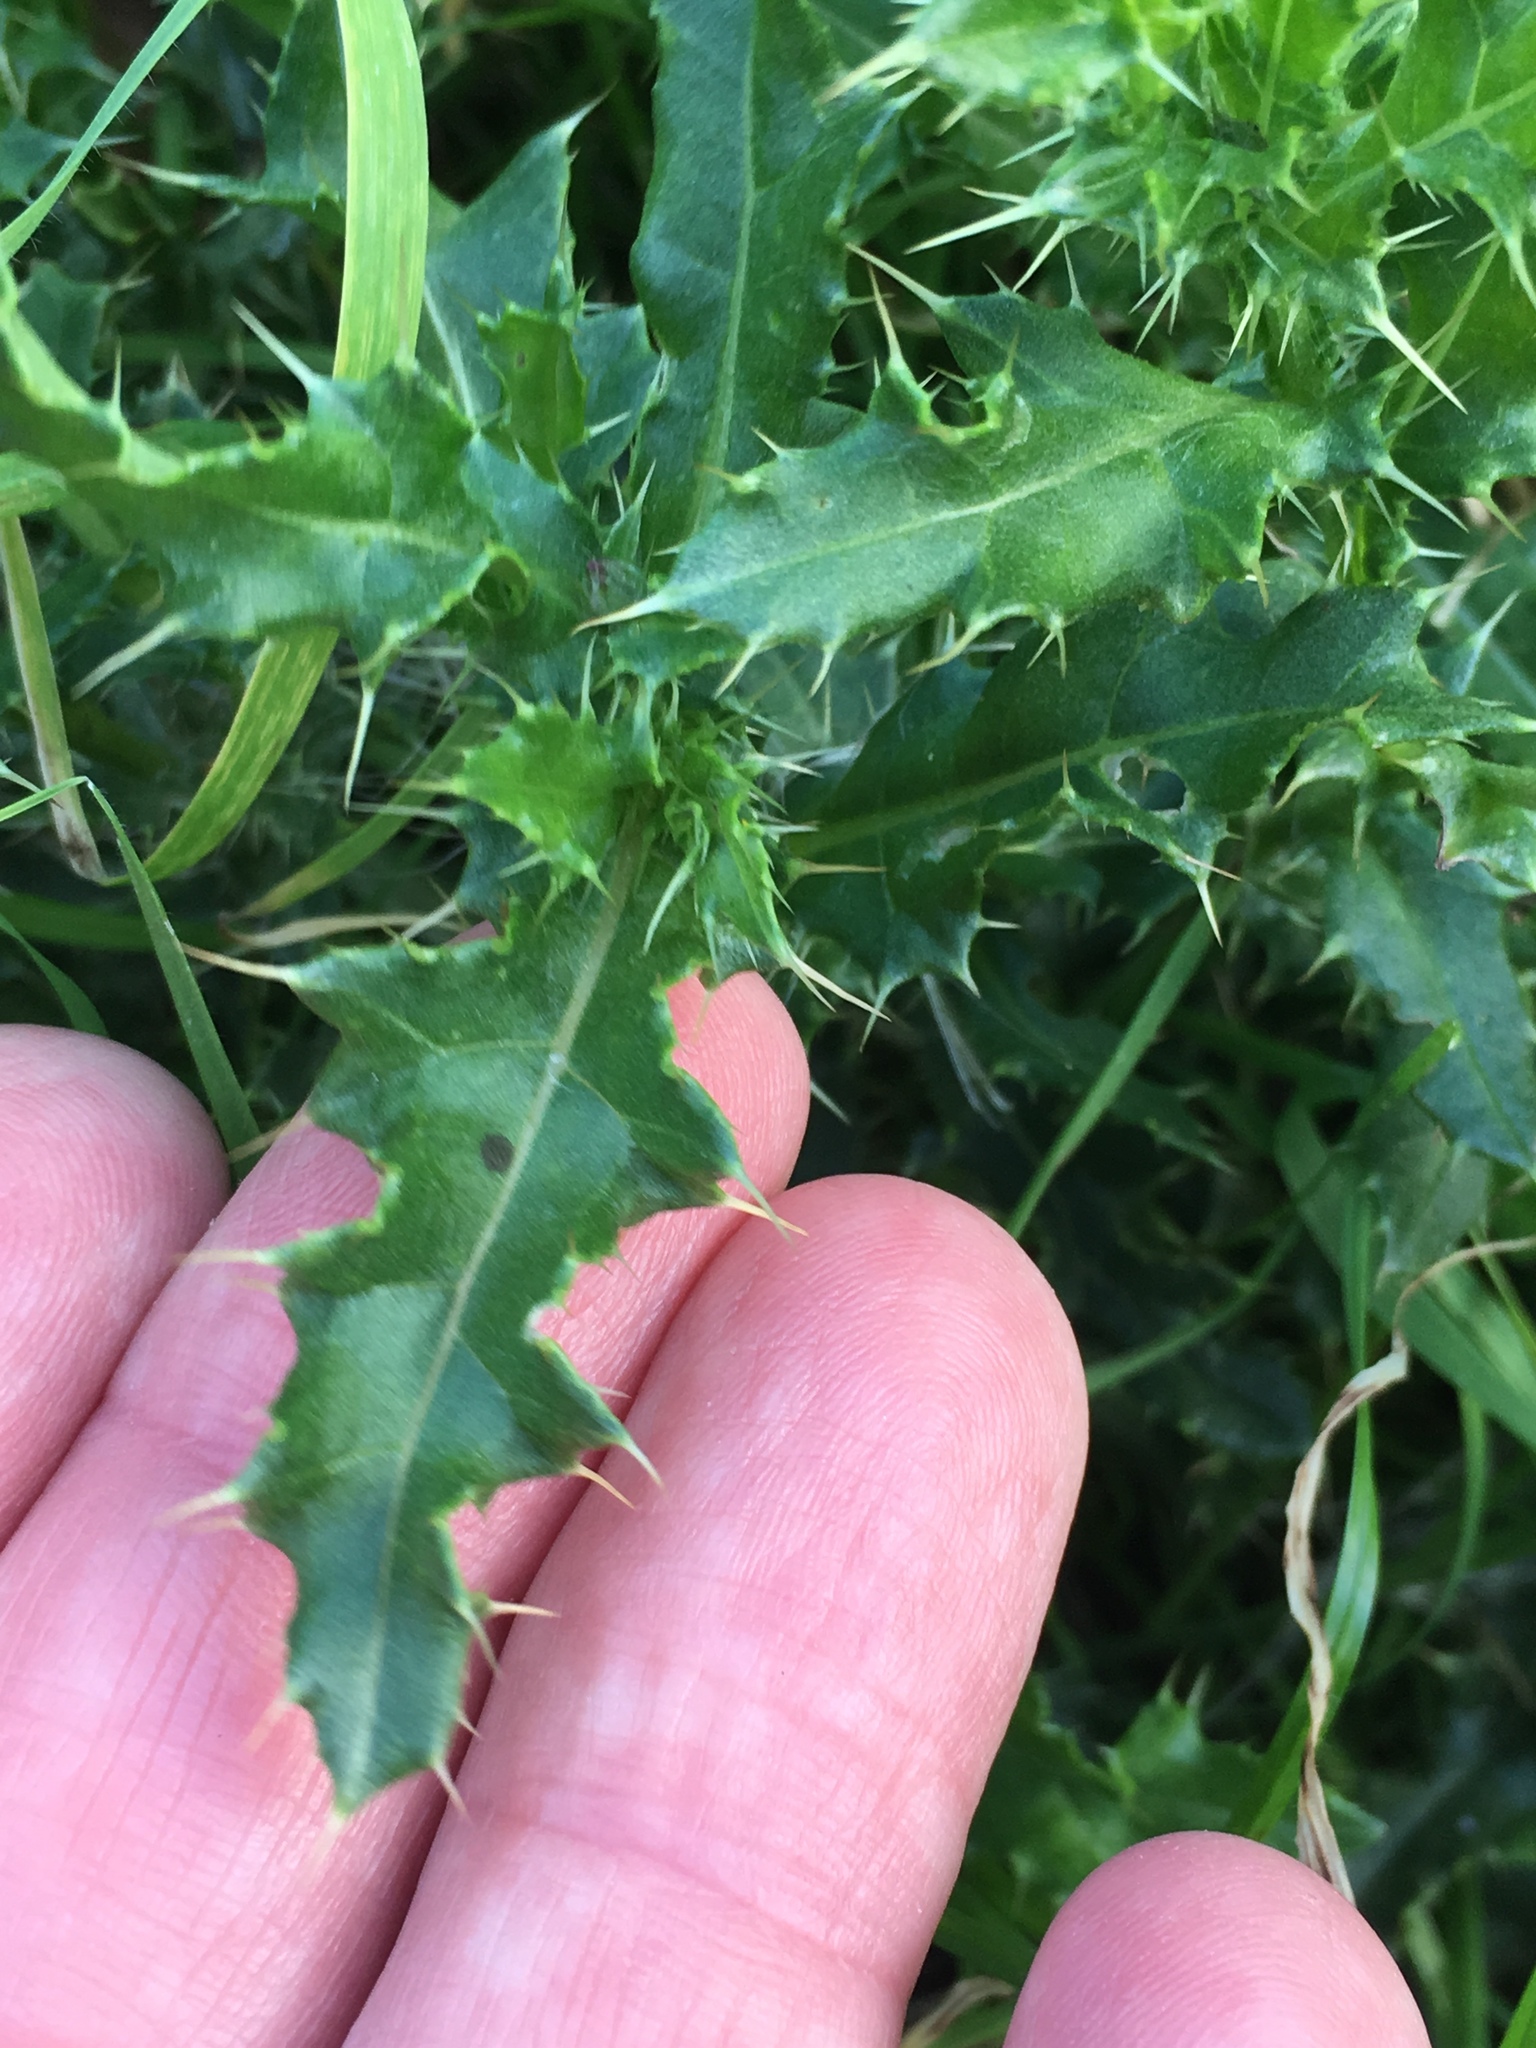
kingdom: Plantae
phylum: Tracheophyta
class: Magnoliopsida
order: Asterales
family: Asteraceae
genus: Cirsium
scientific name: Cirsium arvense
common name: Creeping thistle
